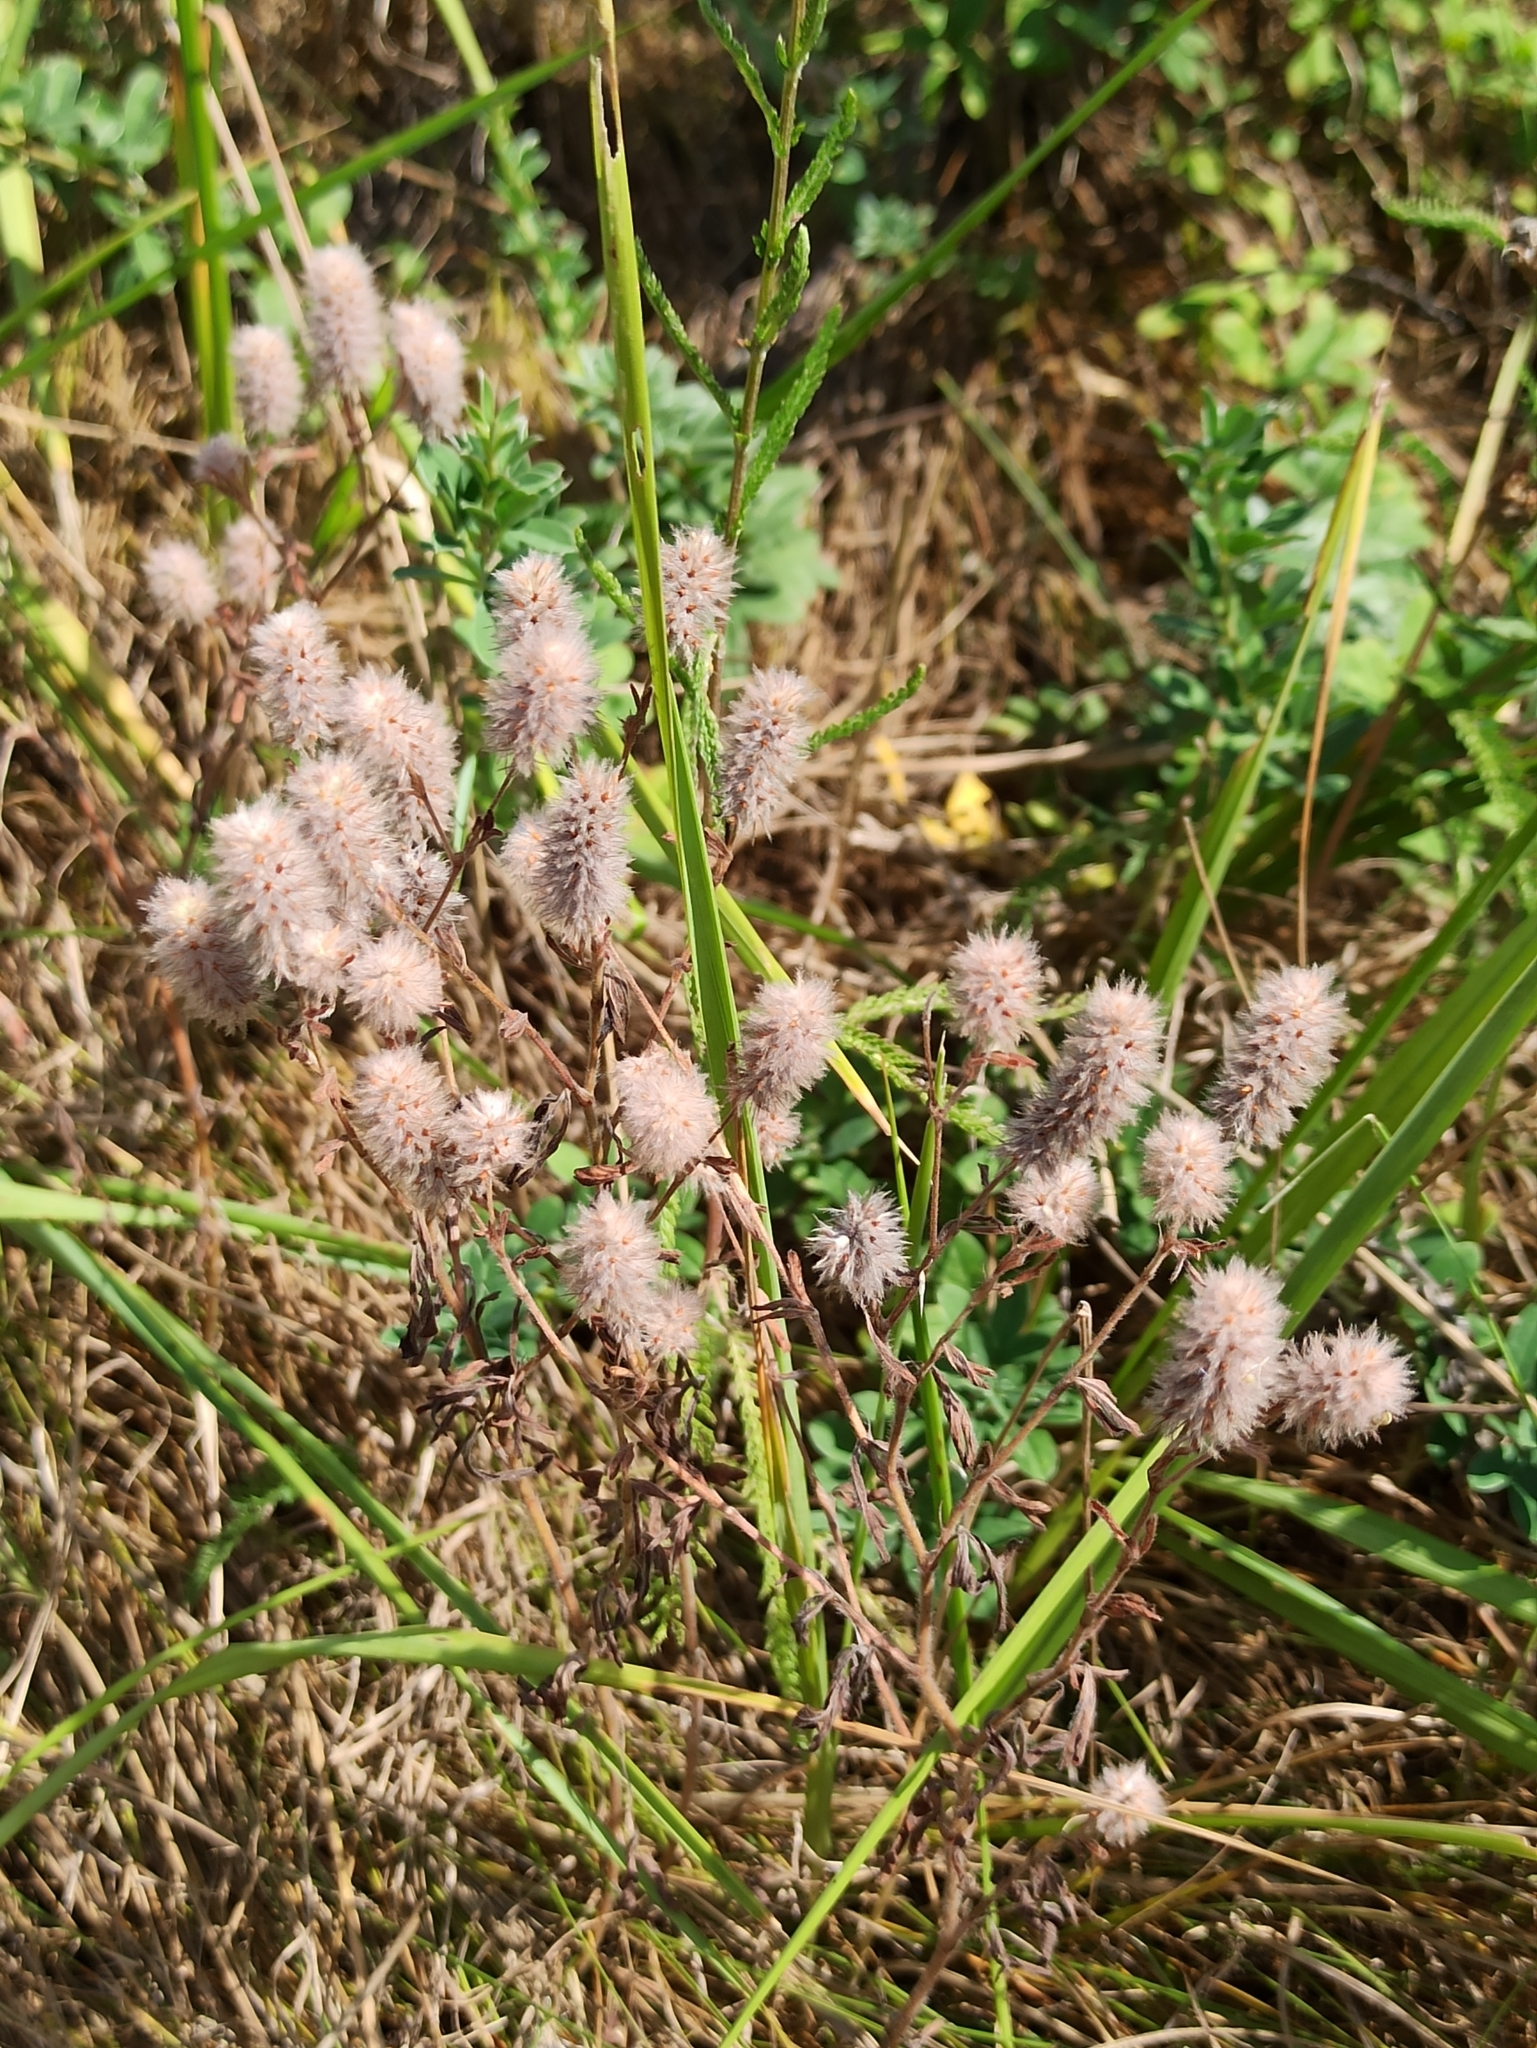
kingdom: Plantae
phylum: Tracheophyta
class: Magnoliopsida
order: Fabales
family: Fabaceae
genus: Trifolium
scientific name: Trifolium arvense
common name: Hare's-foot clover
